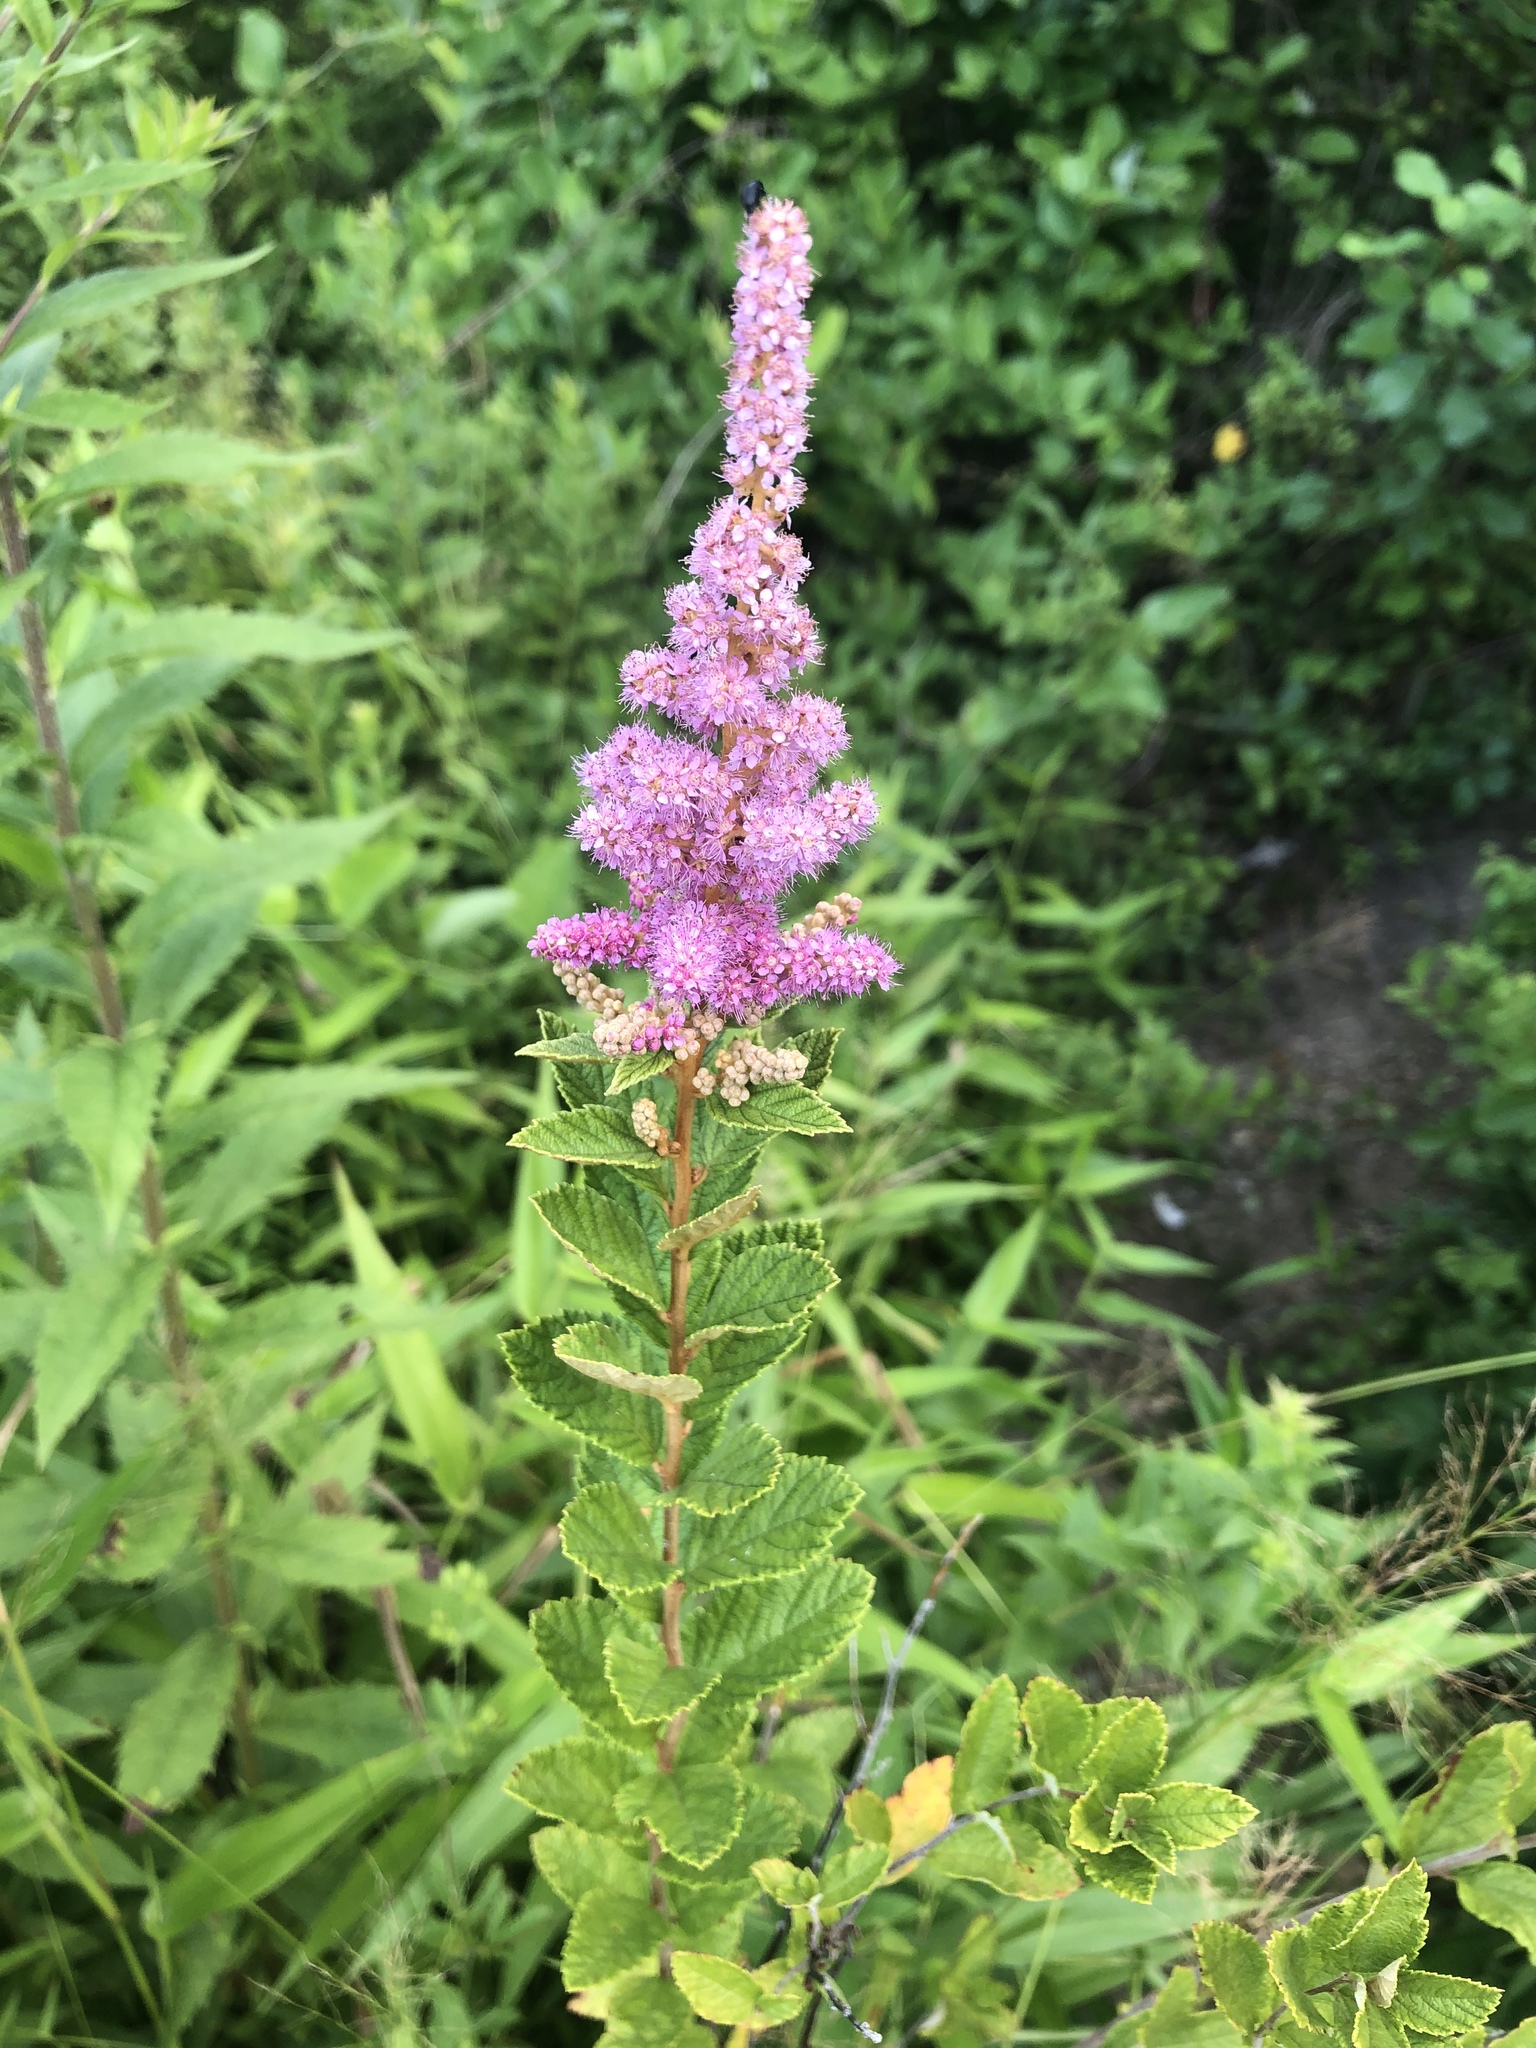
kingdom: Plantae
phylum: Tracheophyta
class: Magnoliopsida
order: Rosales
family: Rosaceae
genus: Spiraea
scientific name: Spiraea tomentosa
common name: Hardhack
